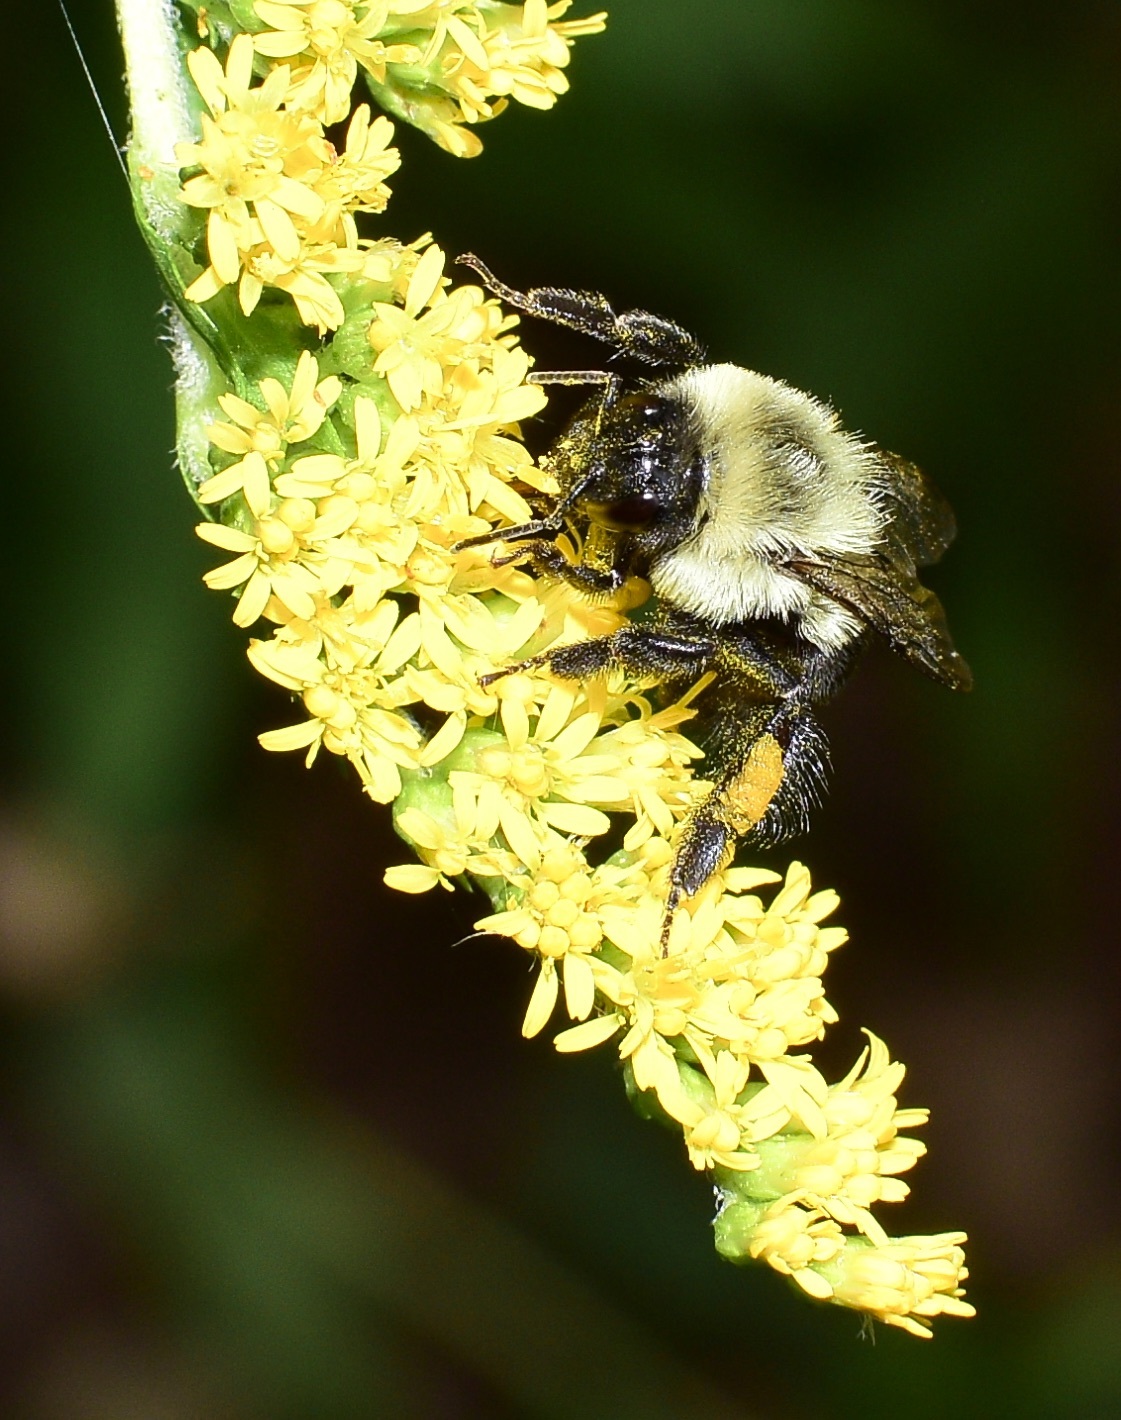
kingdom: Animalia
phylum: Arthropoda
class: Insecta
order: Hymenoptera
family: Apidae
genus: Bombus
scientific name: Bombus impatiens
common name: Common eastern bumble bee
